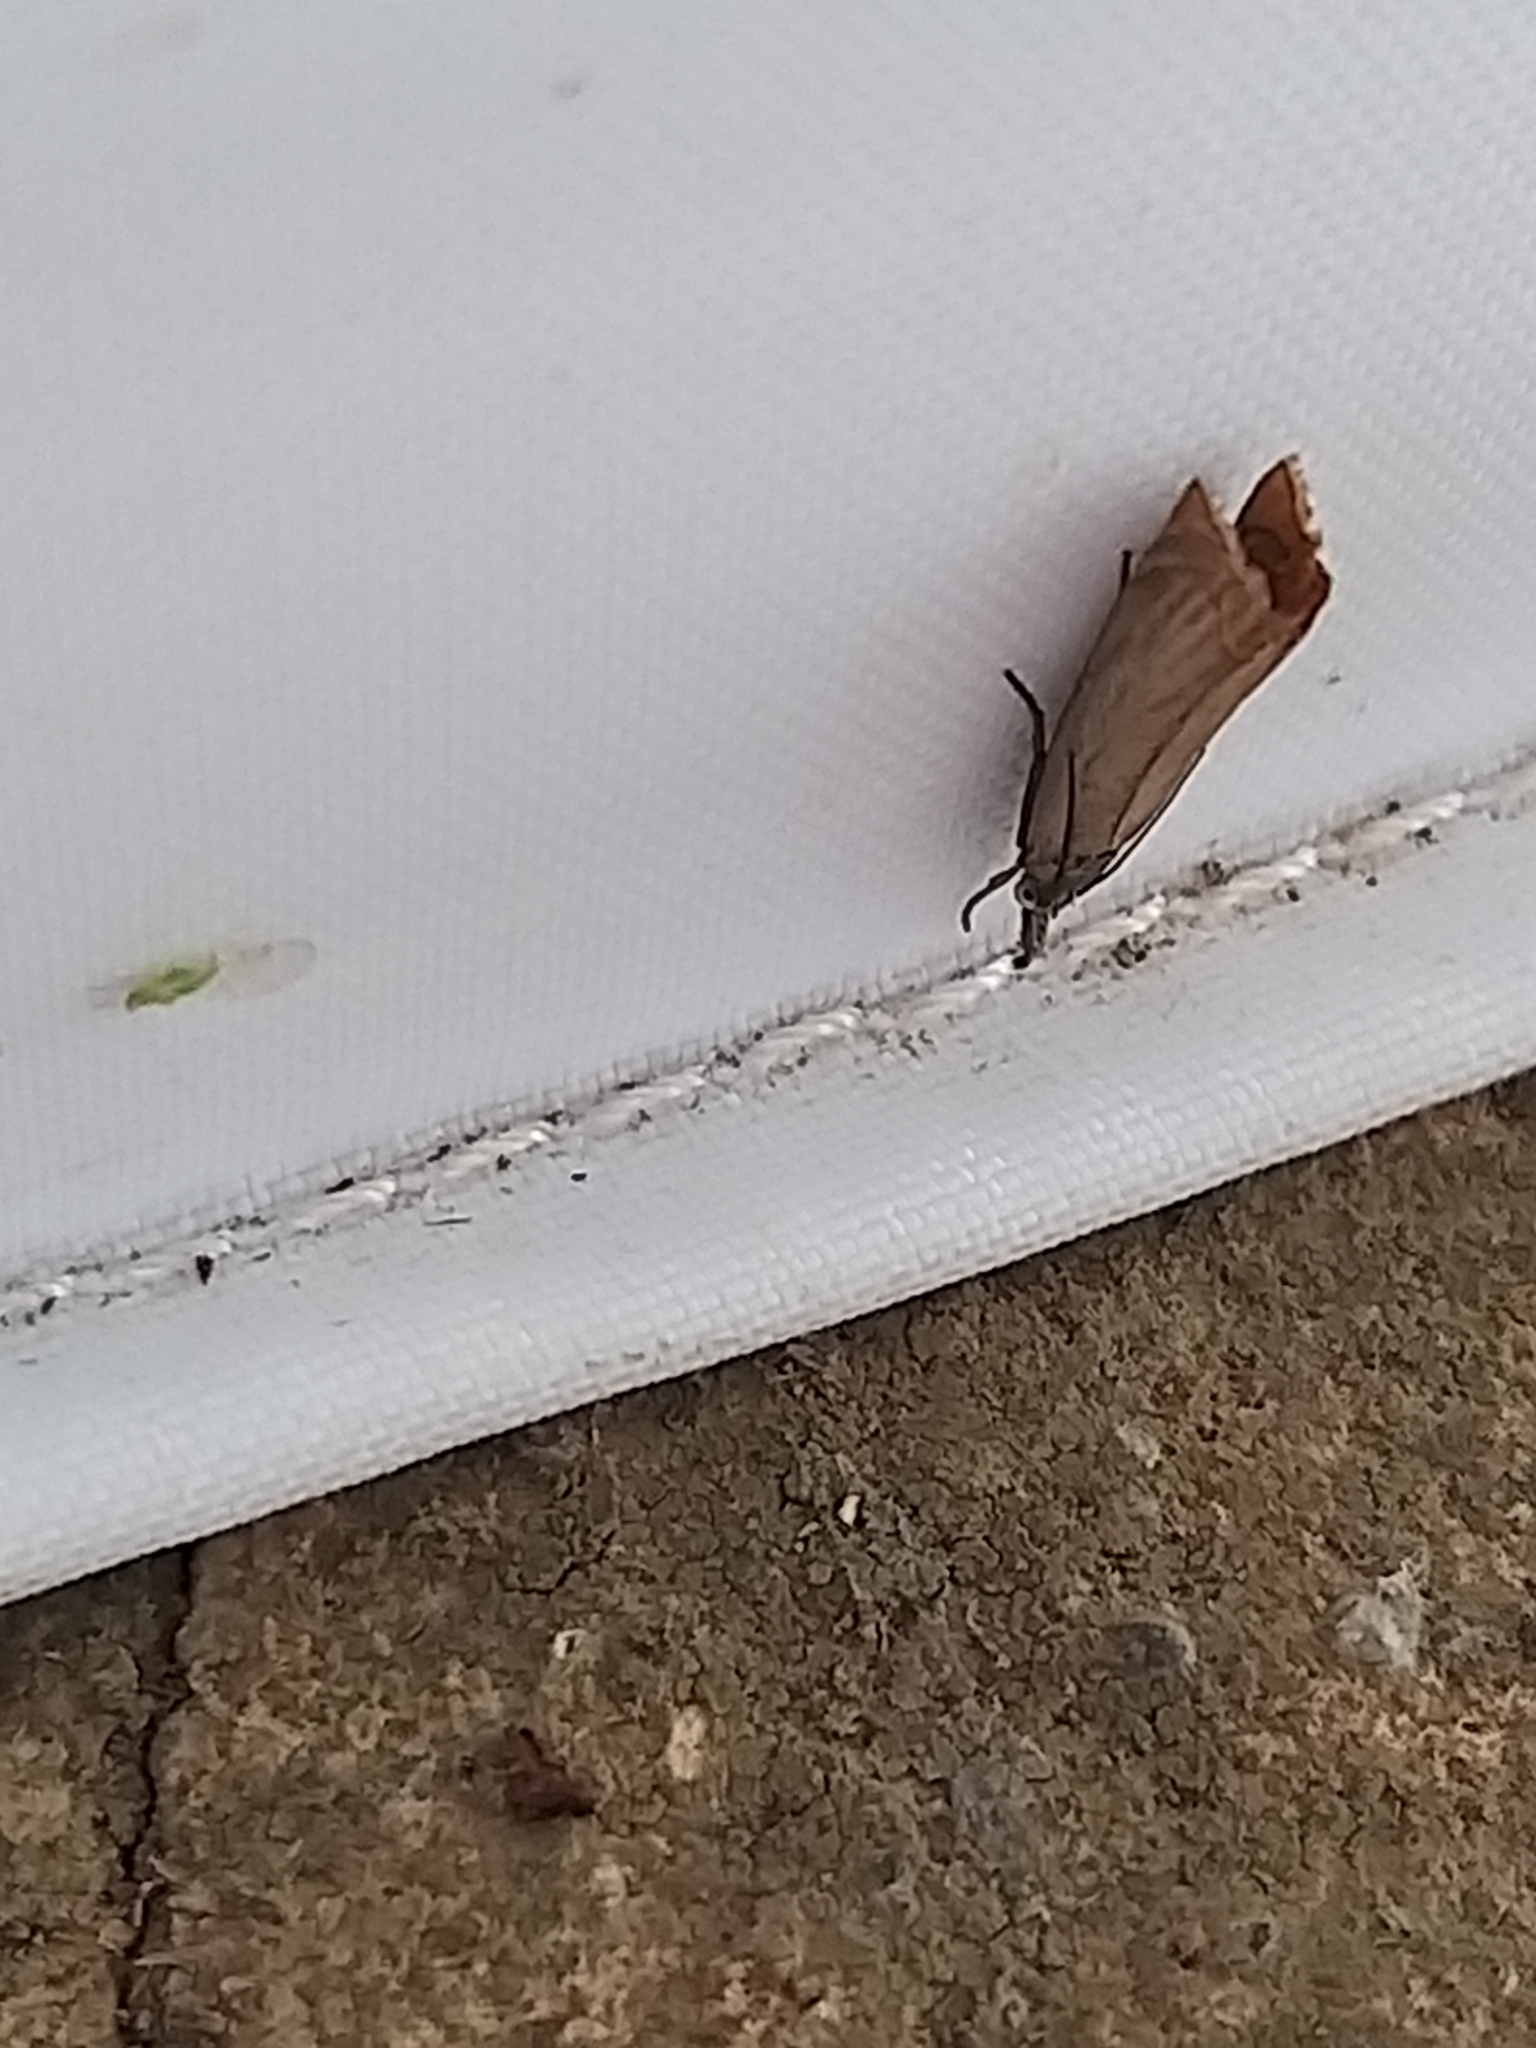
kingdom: Animalia
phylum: Arthropoda
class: Insecta
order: Lepidoptera
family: Crambidae
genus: Chrysoteuchia
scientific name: Chrysoteuchia culmella
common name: Garden grass-veneer
